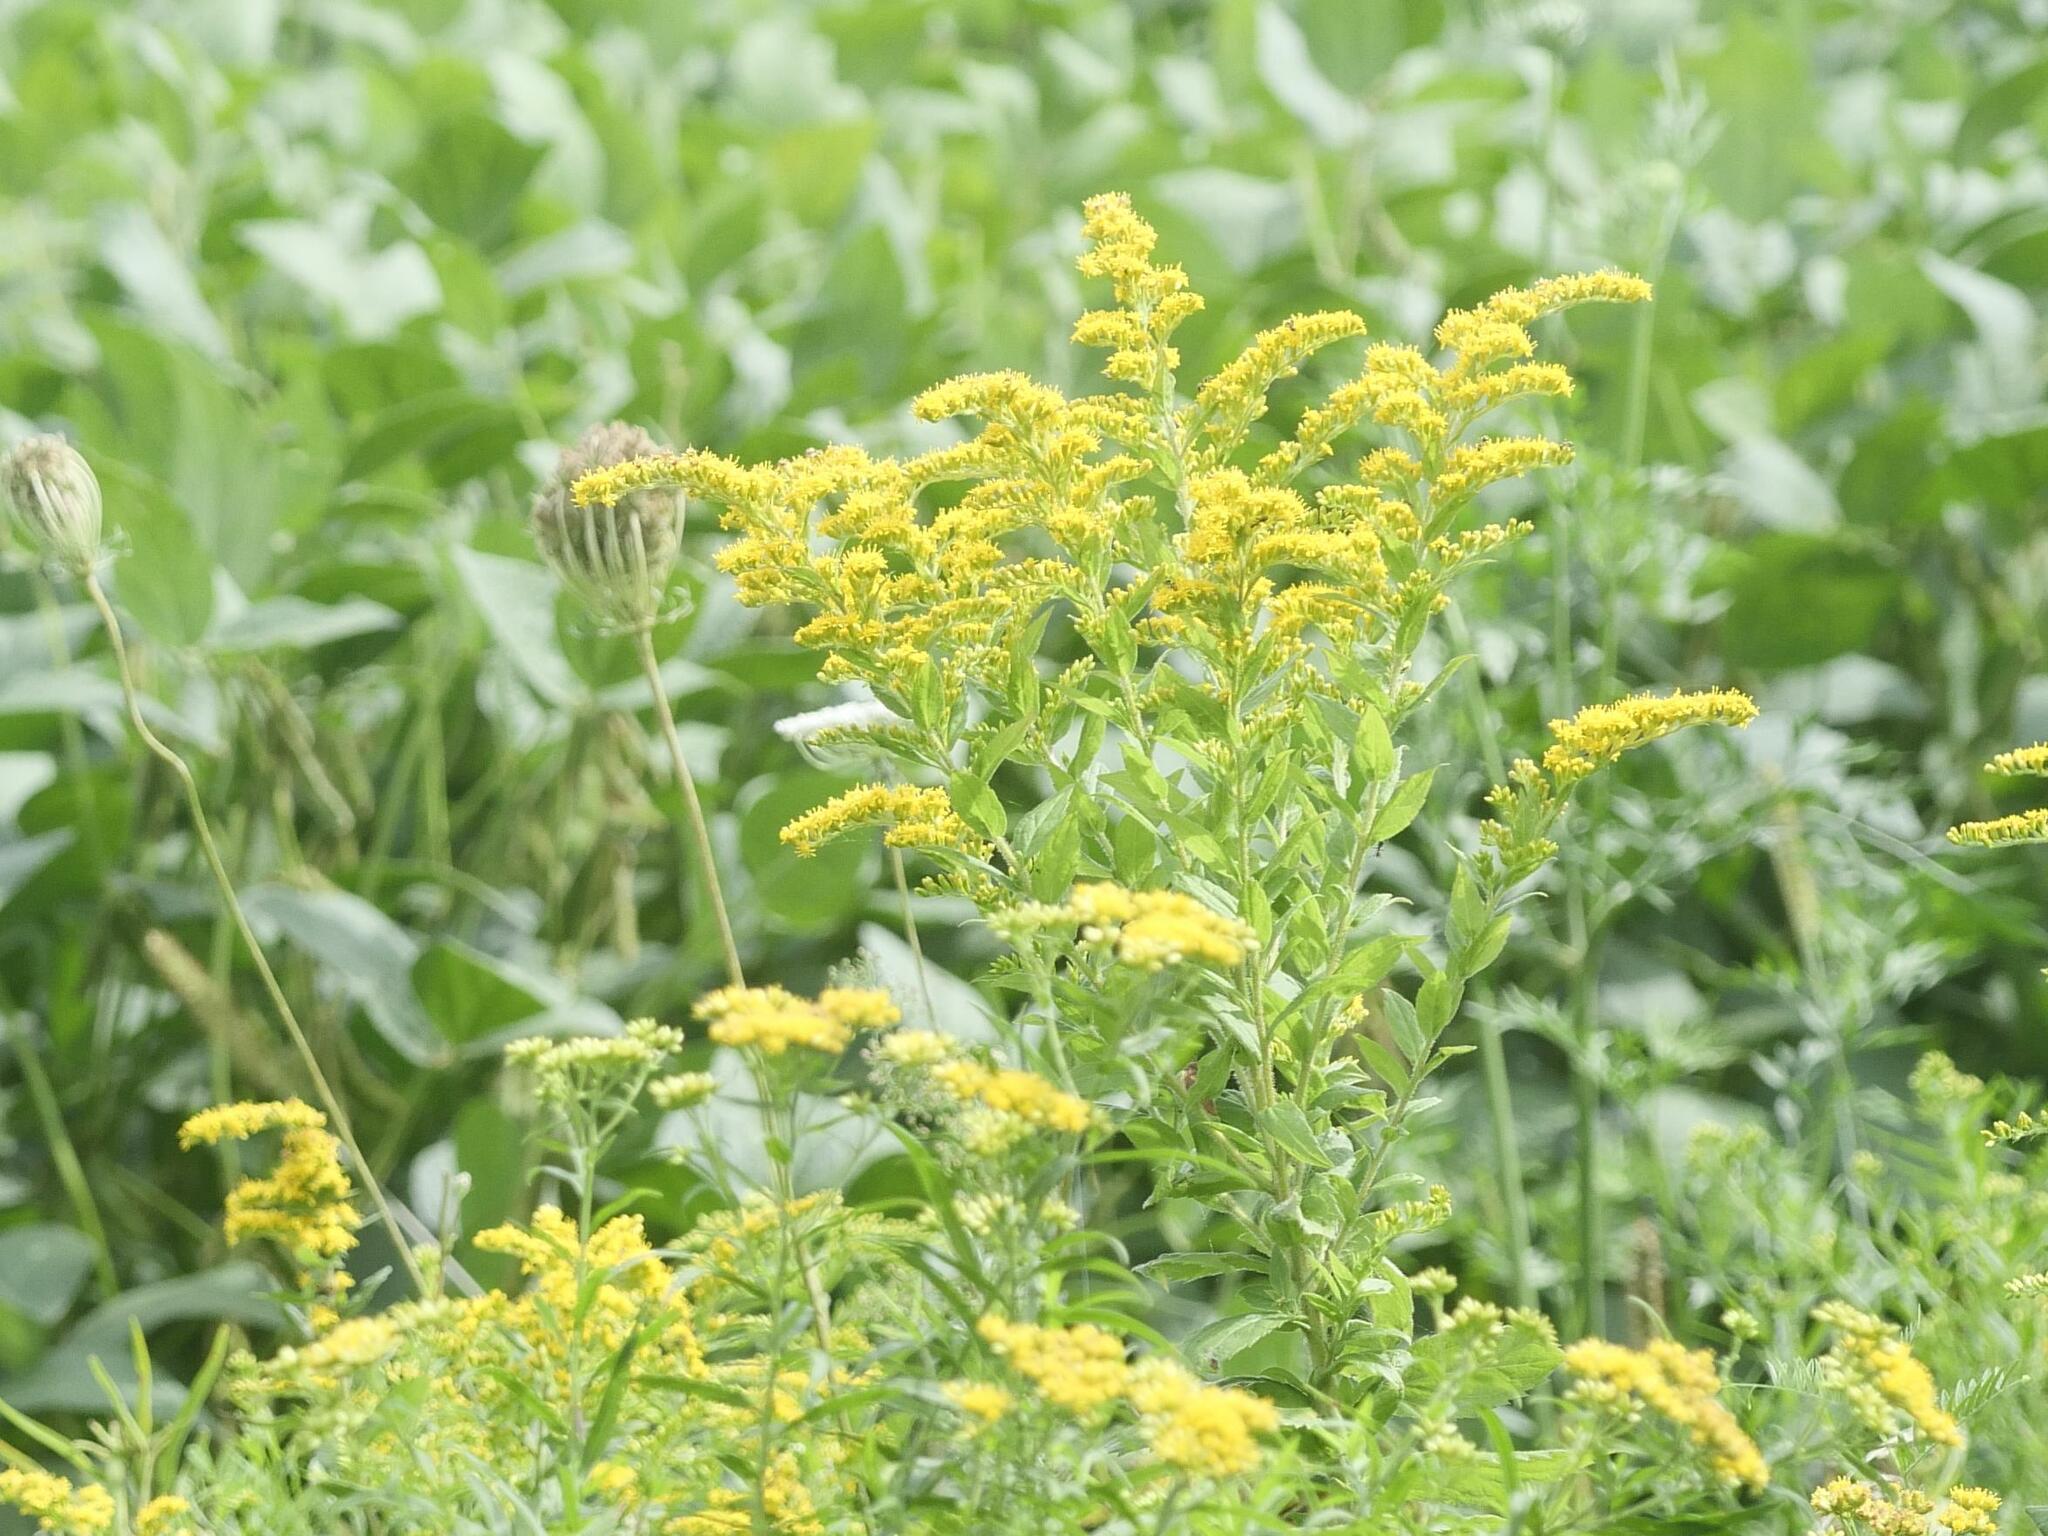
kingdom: Plantae
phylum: Tracheophyta
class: Magnoliopsida
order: Asterales
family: Asteraceae
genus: Solidago
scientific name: Solidago rugosa
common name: Rough-stemmed goldenrod
